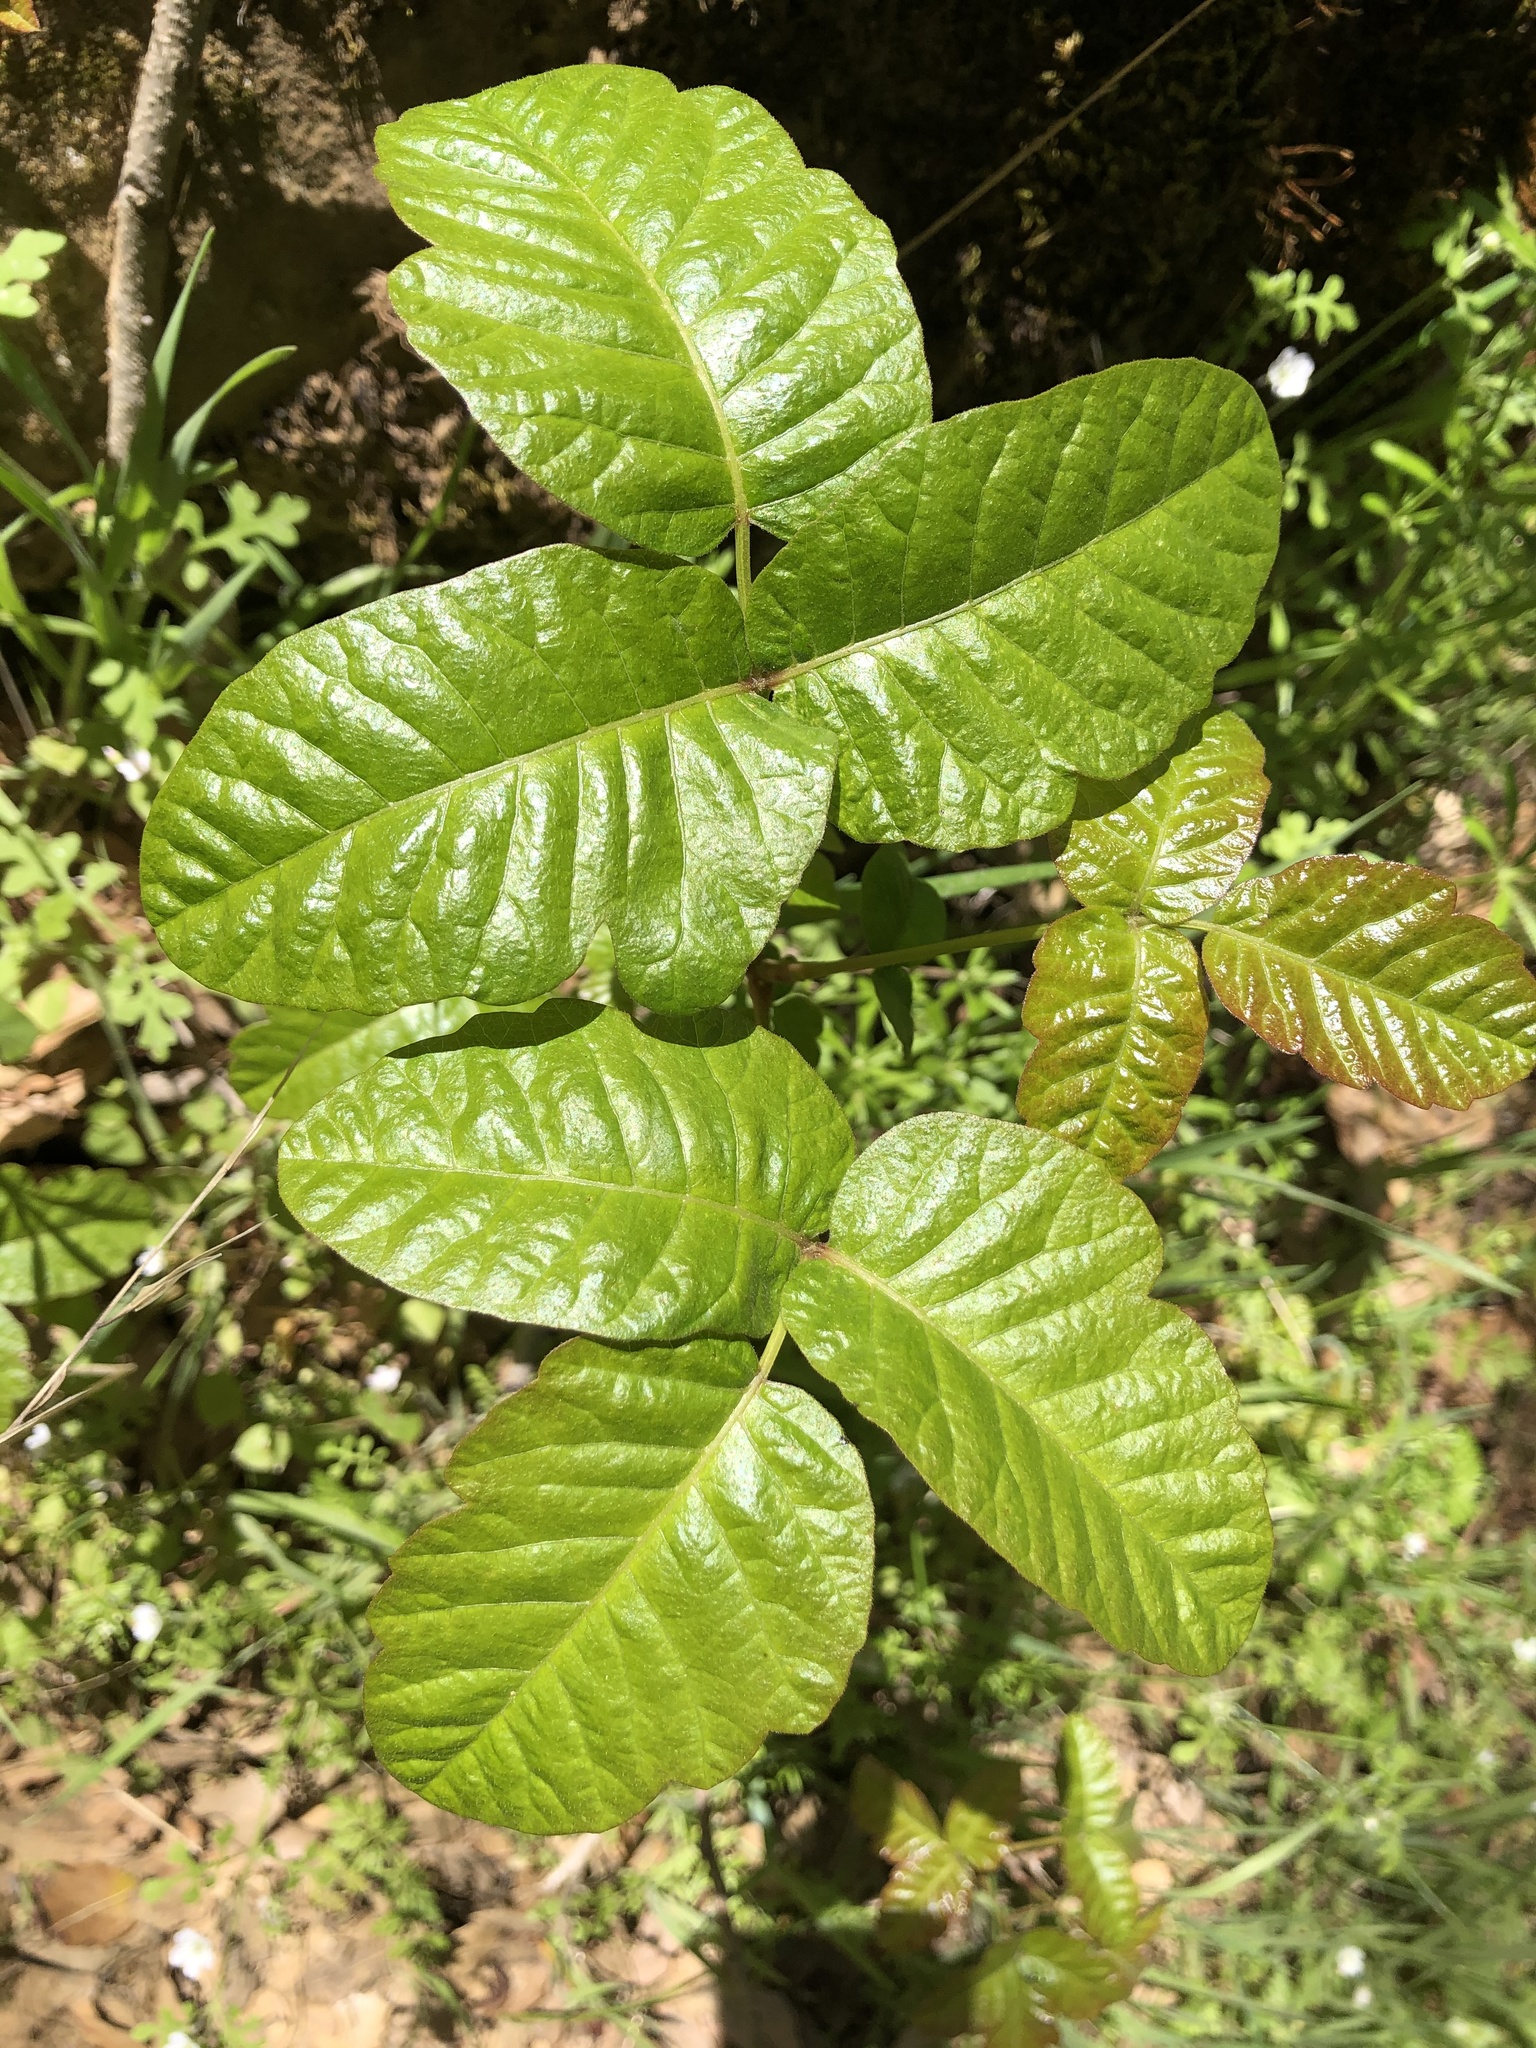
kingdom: Plantae
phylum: Tracheophyta
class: Magnoliopsida
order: Sapindales
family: Anacardiaceae
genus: Toxicodendron
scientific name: Toxicodendron diversilobum
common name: Pacific poison-oak
